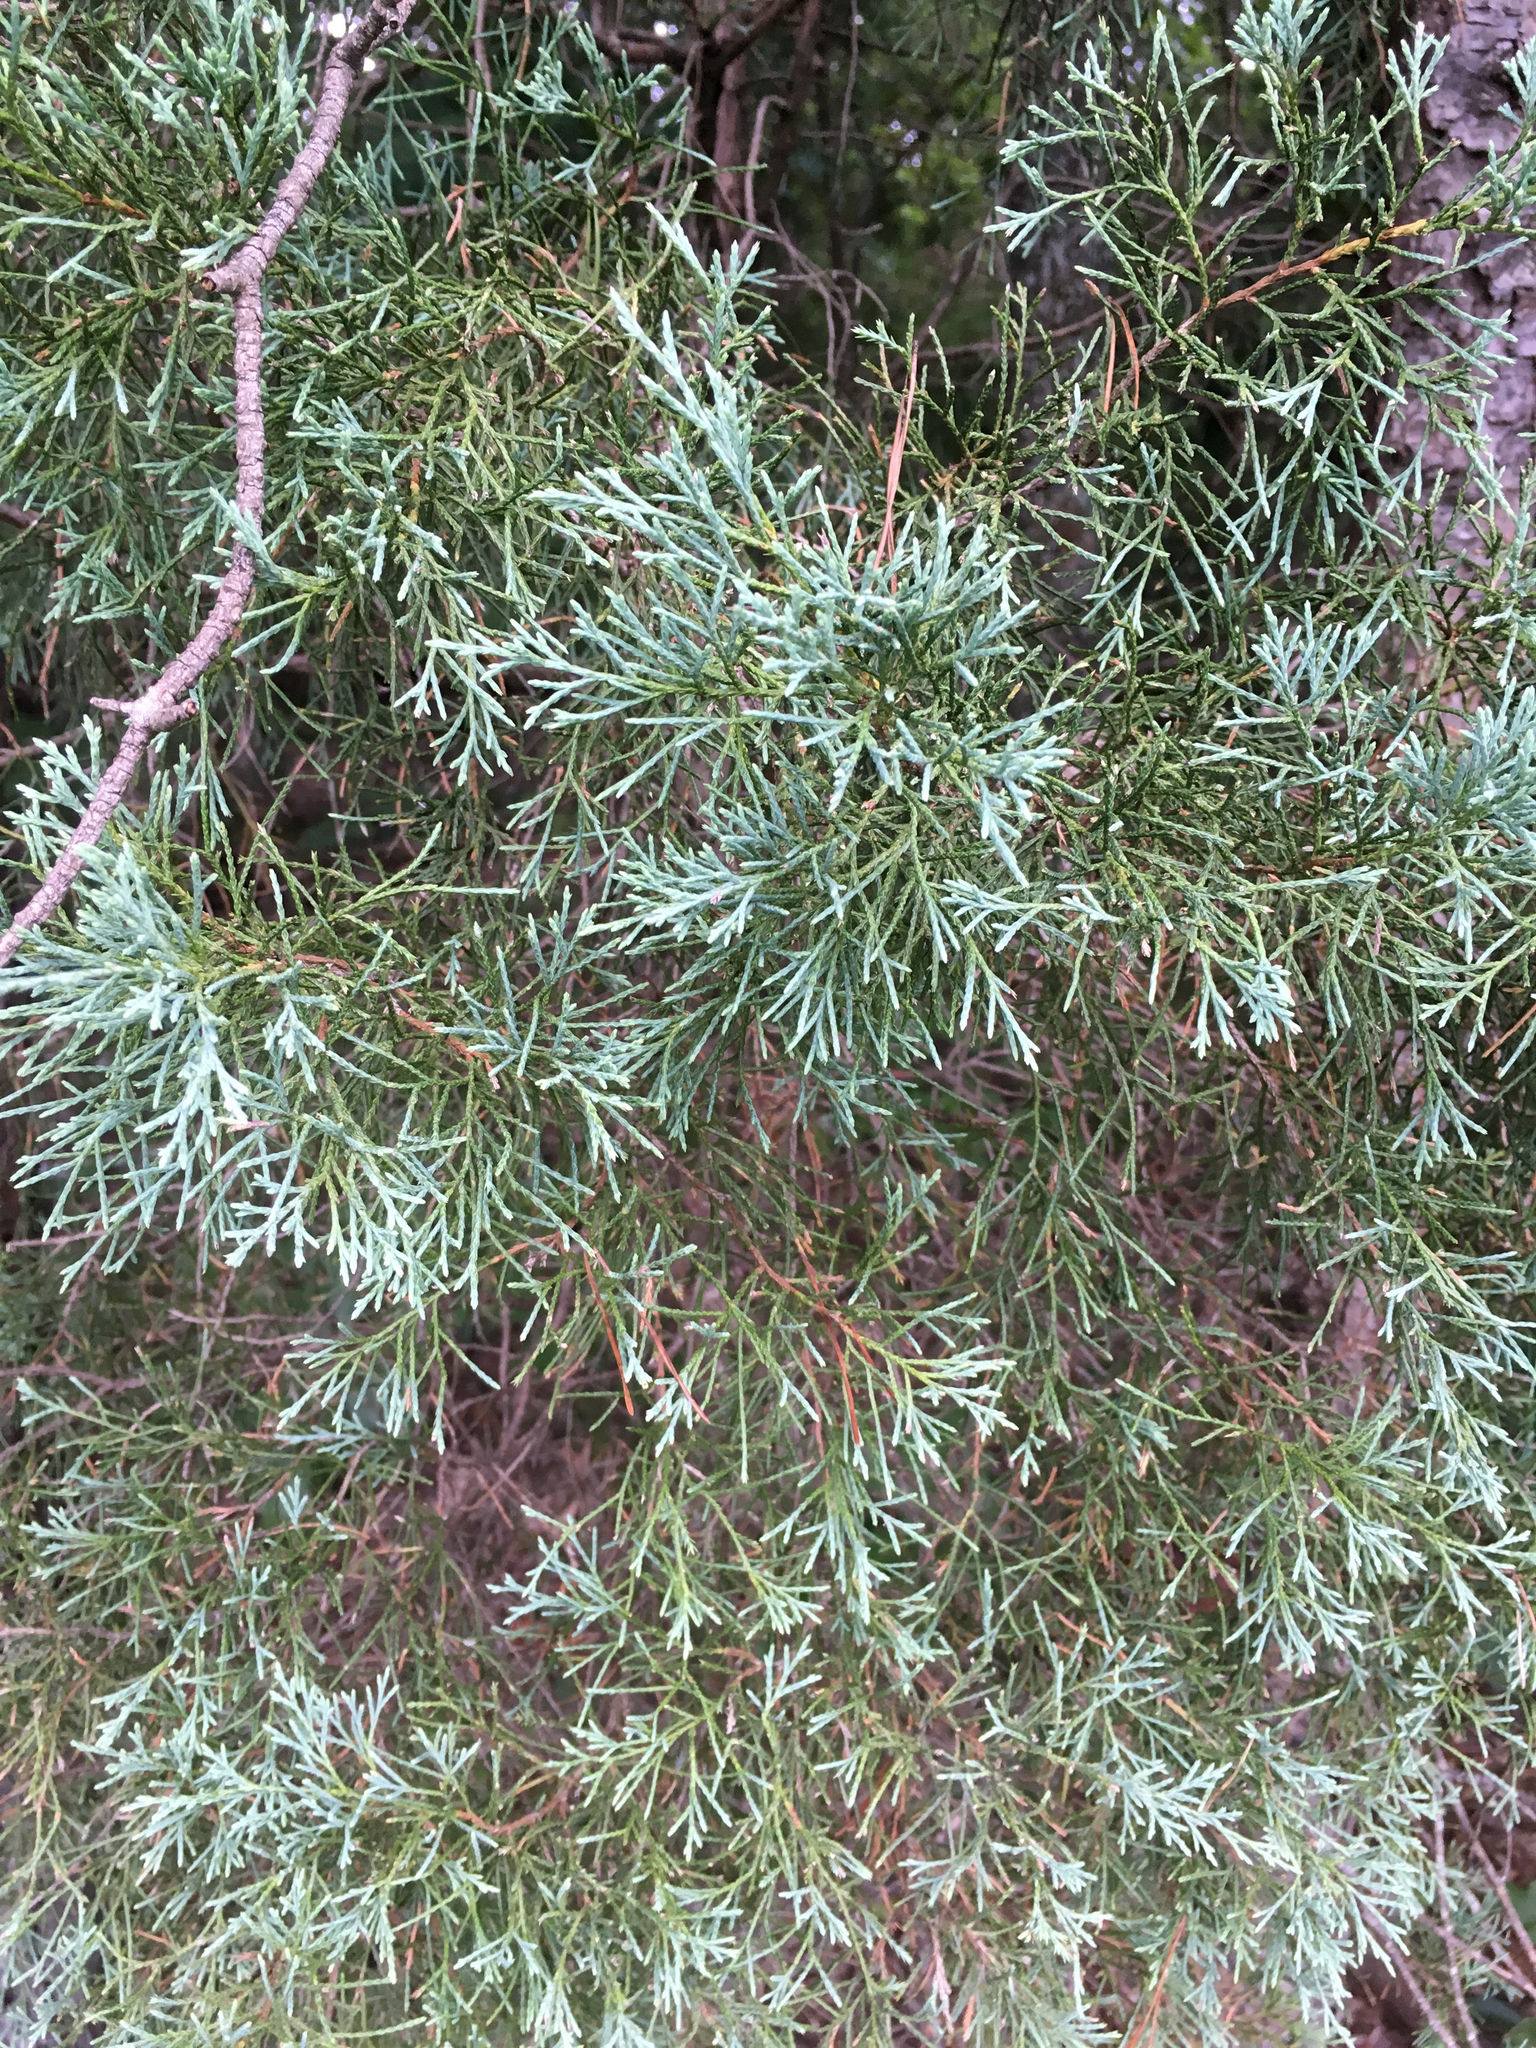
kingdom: Plantae
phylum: Tracheophyta
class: Pinopsida
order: Pinales
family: Cupressaceae
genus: Juniperus
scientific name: Juniperus virginiana
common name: Red juniper
